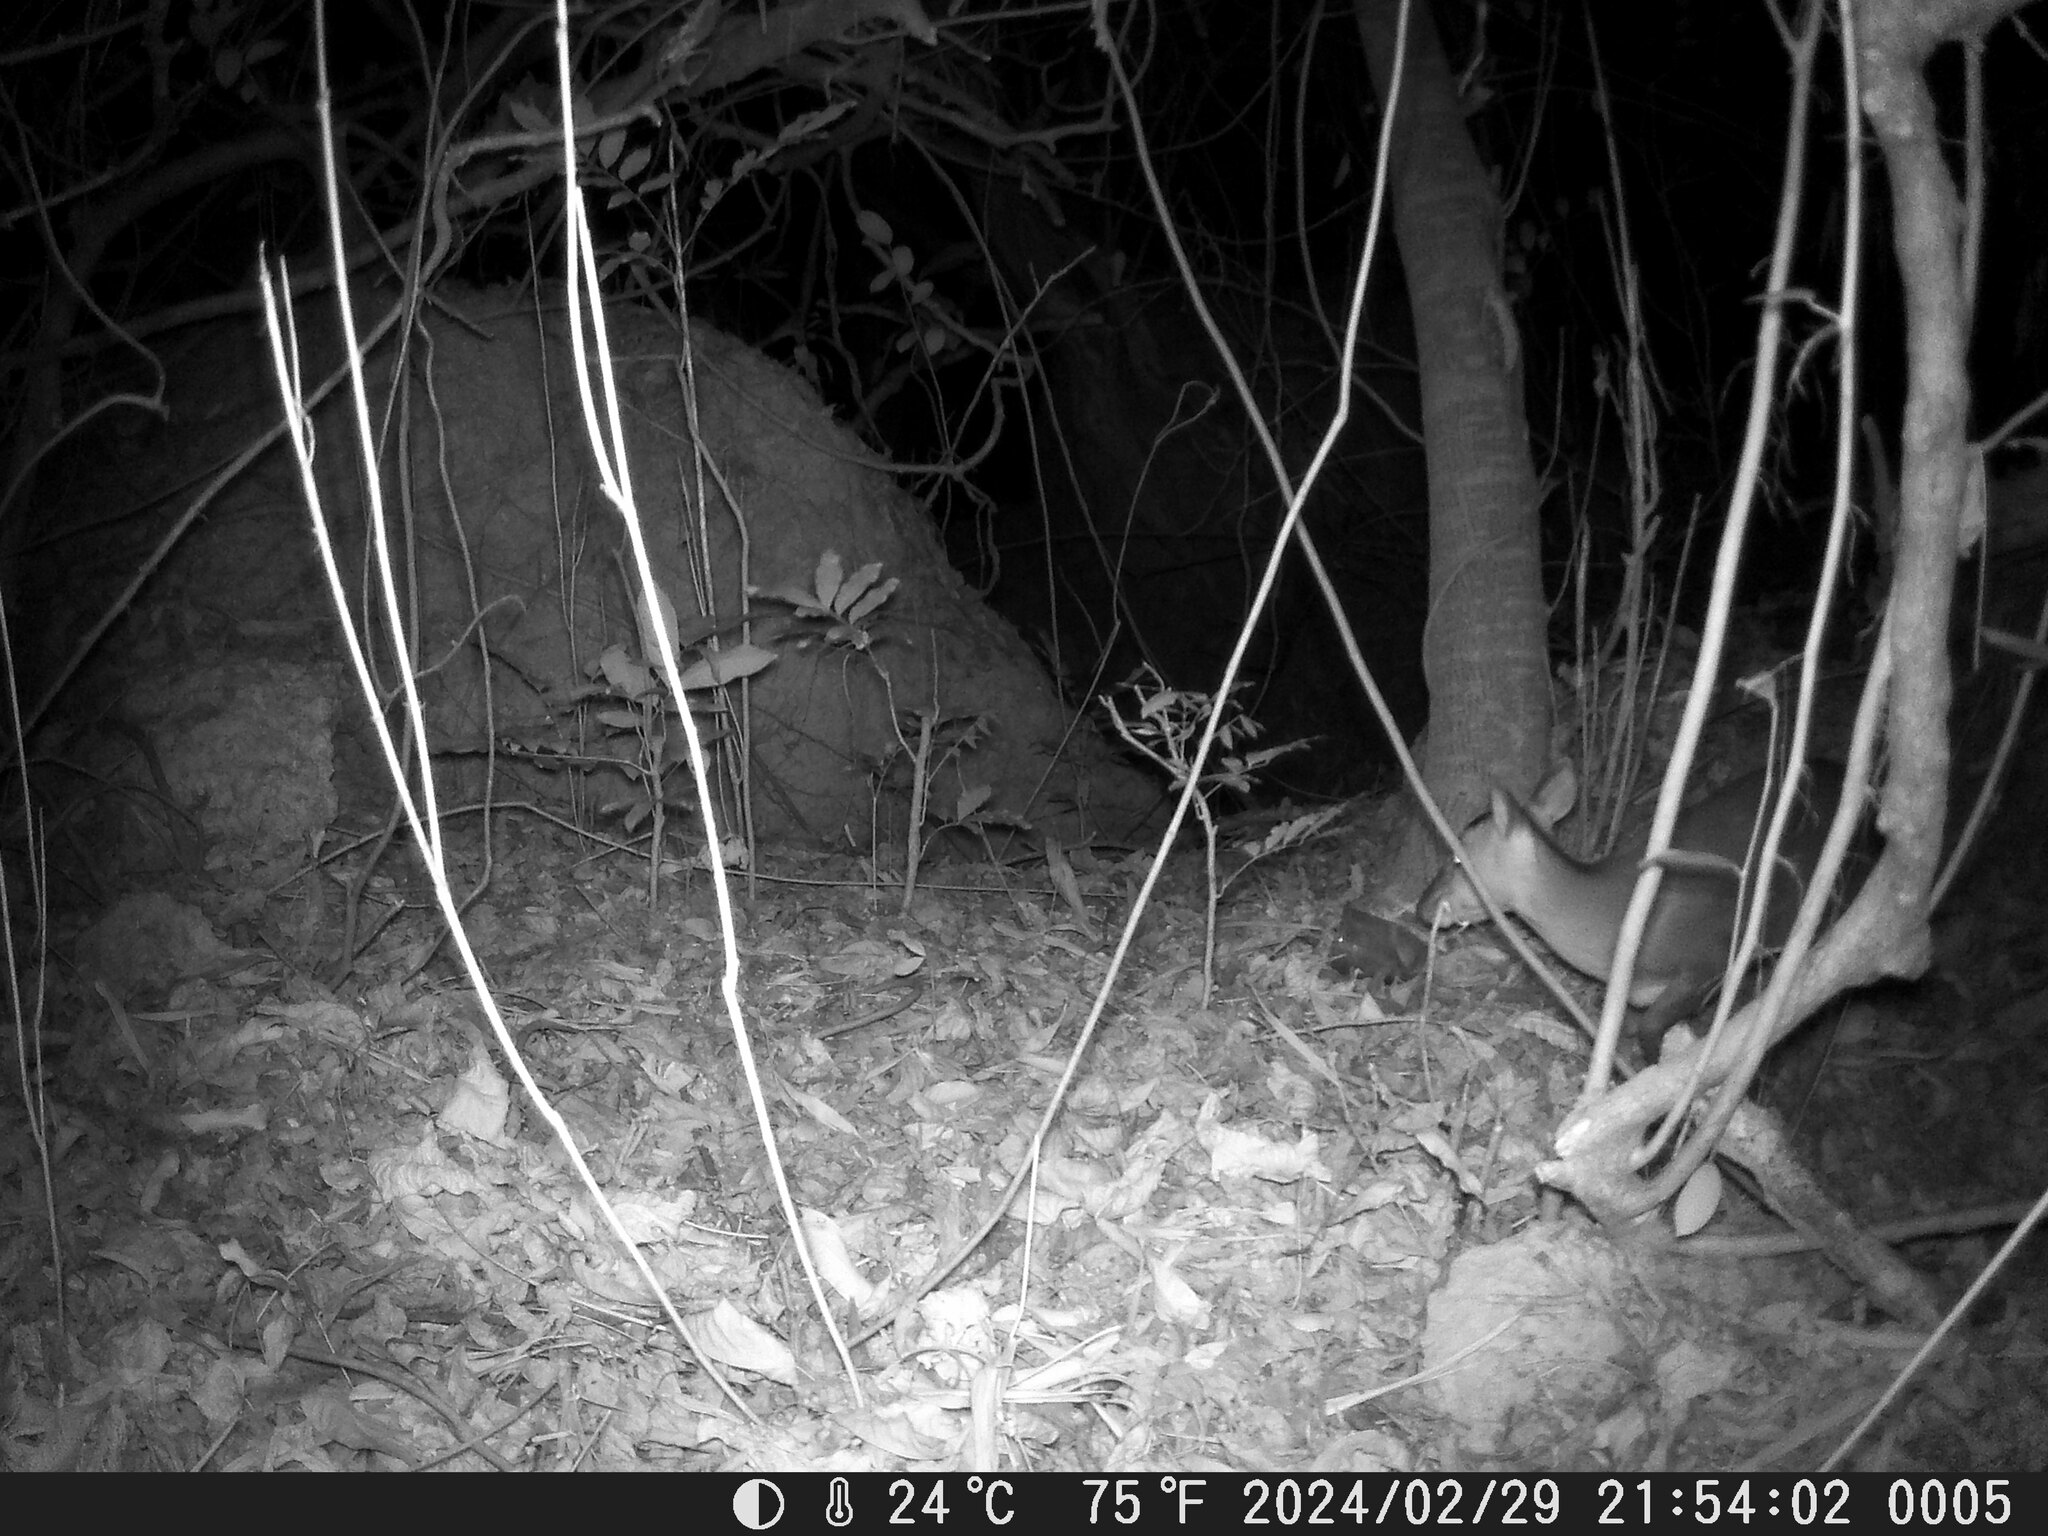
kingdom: Animalia
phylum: Chordata
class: Mammalia
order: Artiodactyla
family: Cervidae
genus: Muntiacus
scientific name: Muntiacus reevesi
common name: Reeves' muntjac
